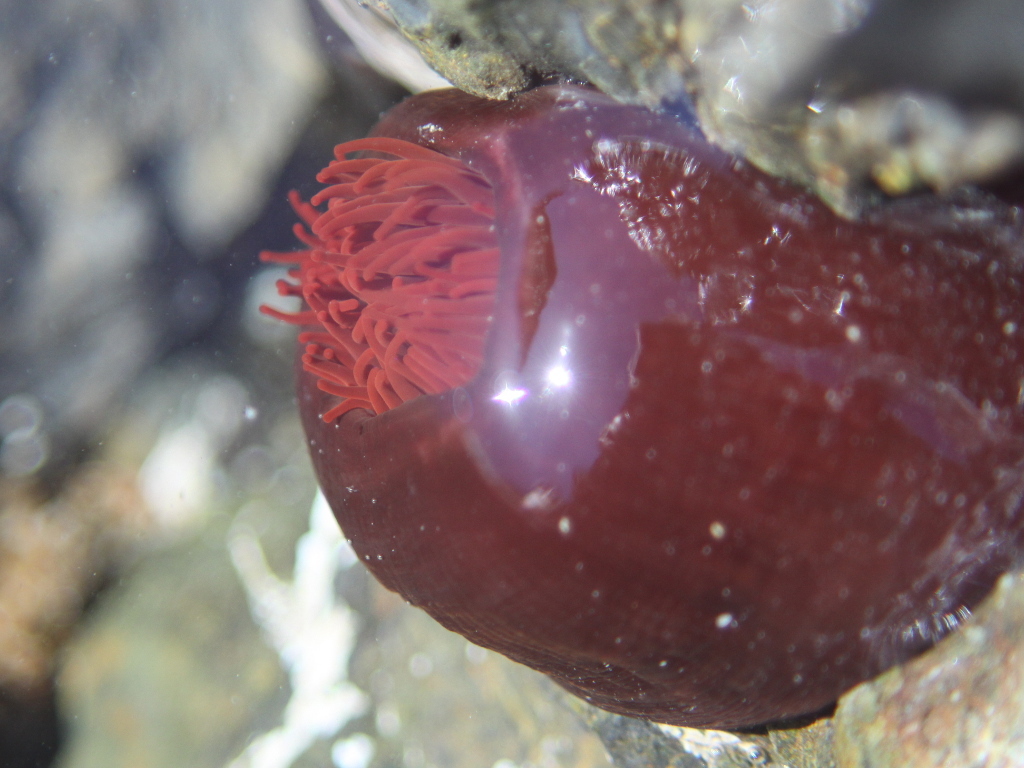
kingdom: Animalia
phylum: Cnidaria
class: Anthozoa
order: Actiniaria
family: Actiniidae
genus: Actinia
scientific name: Actinia tenebrosa
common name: Waratah anemone
